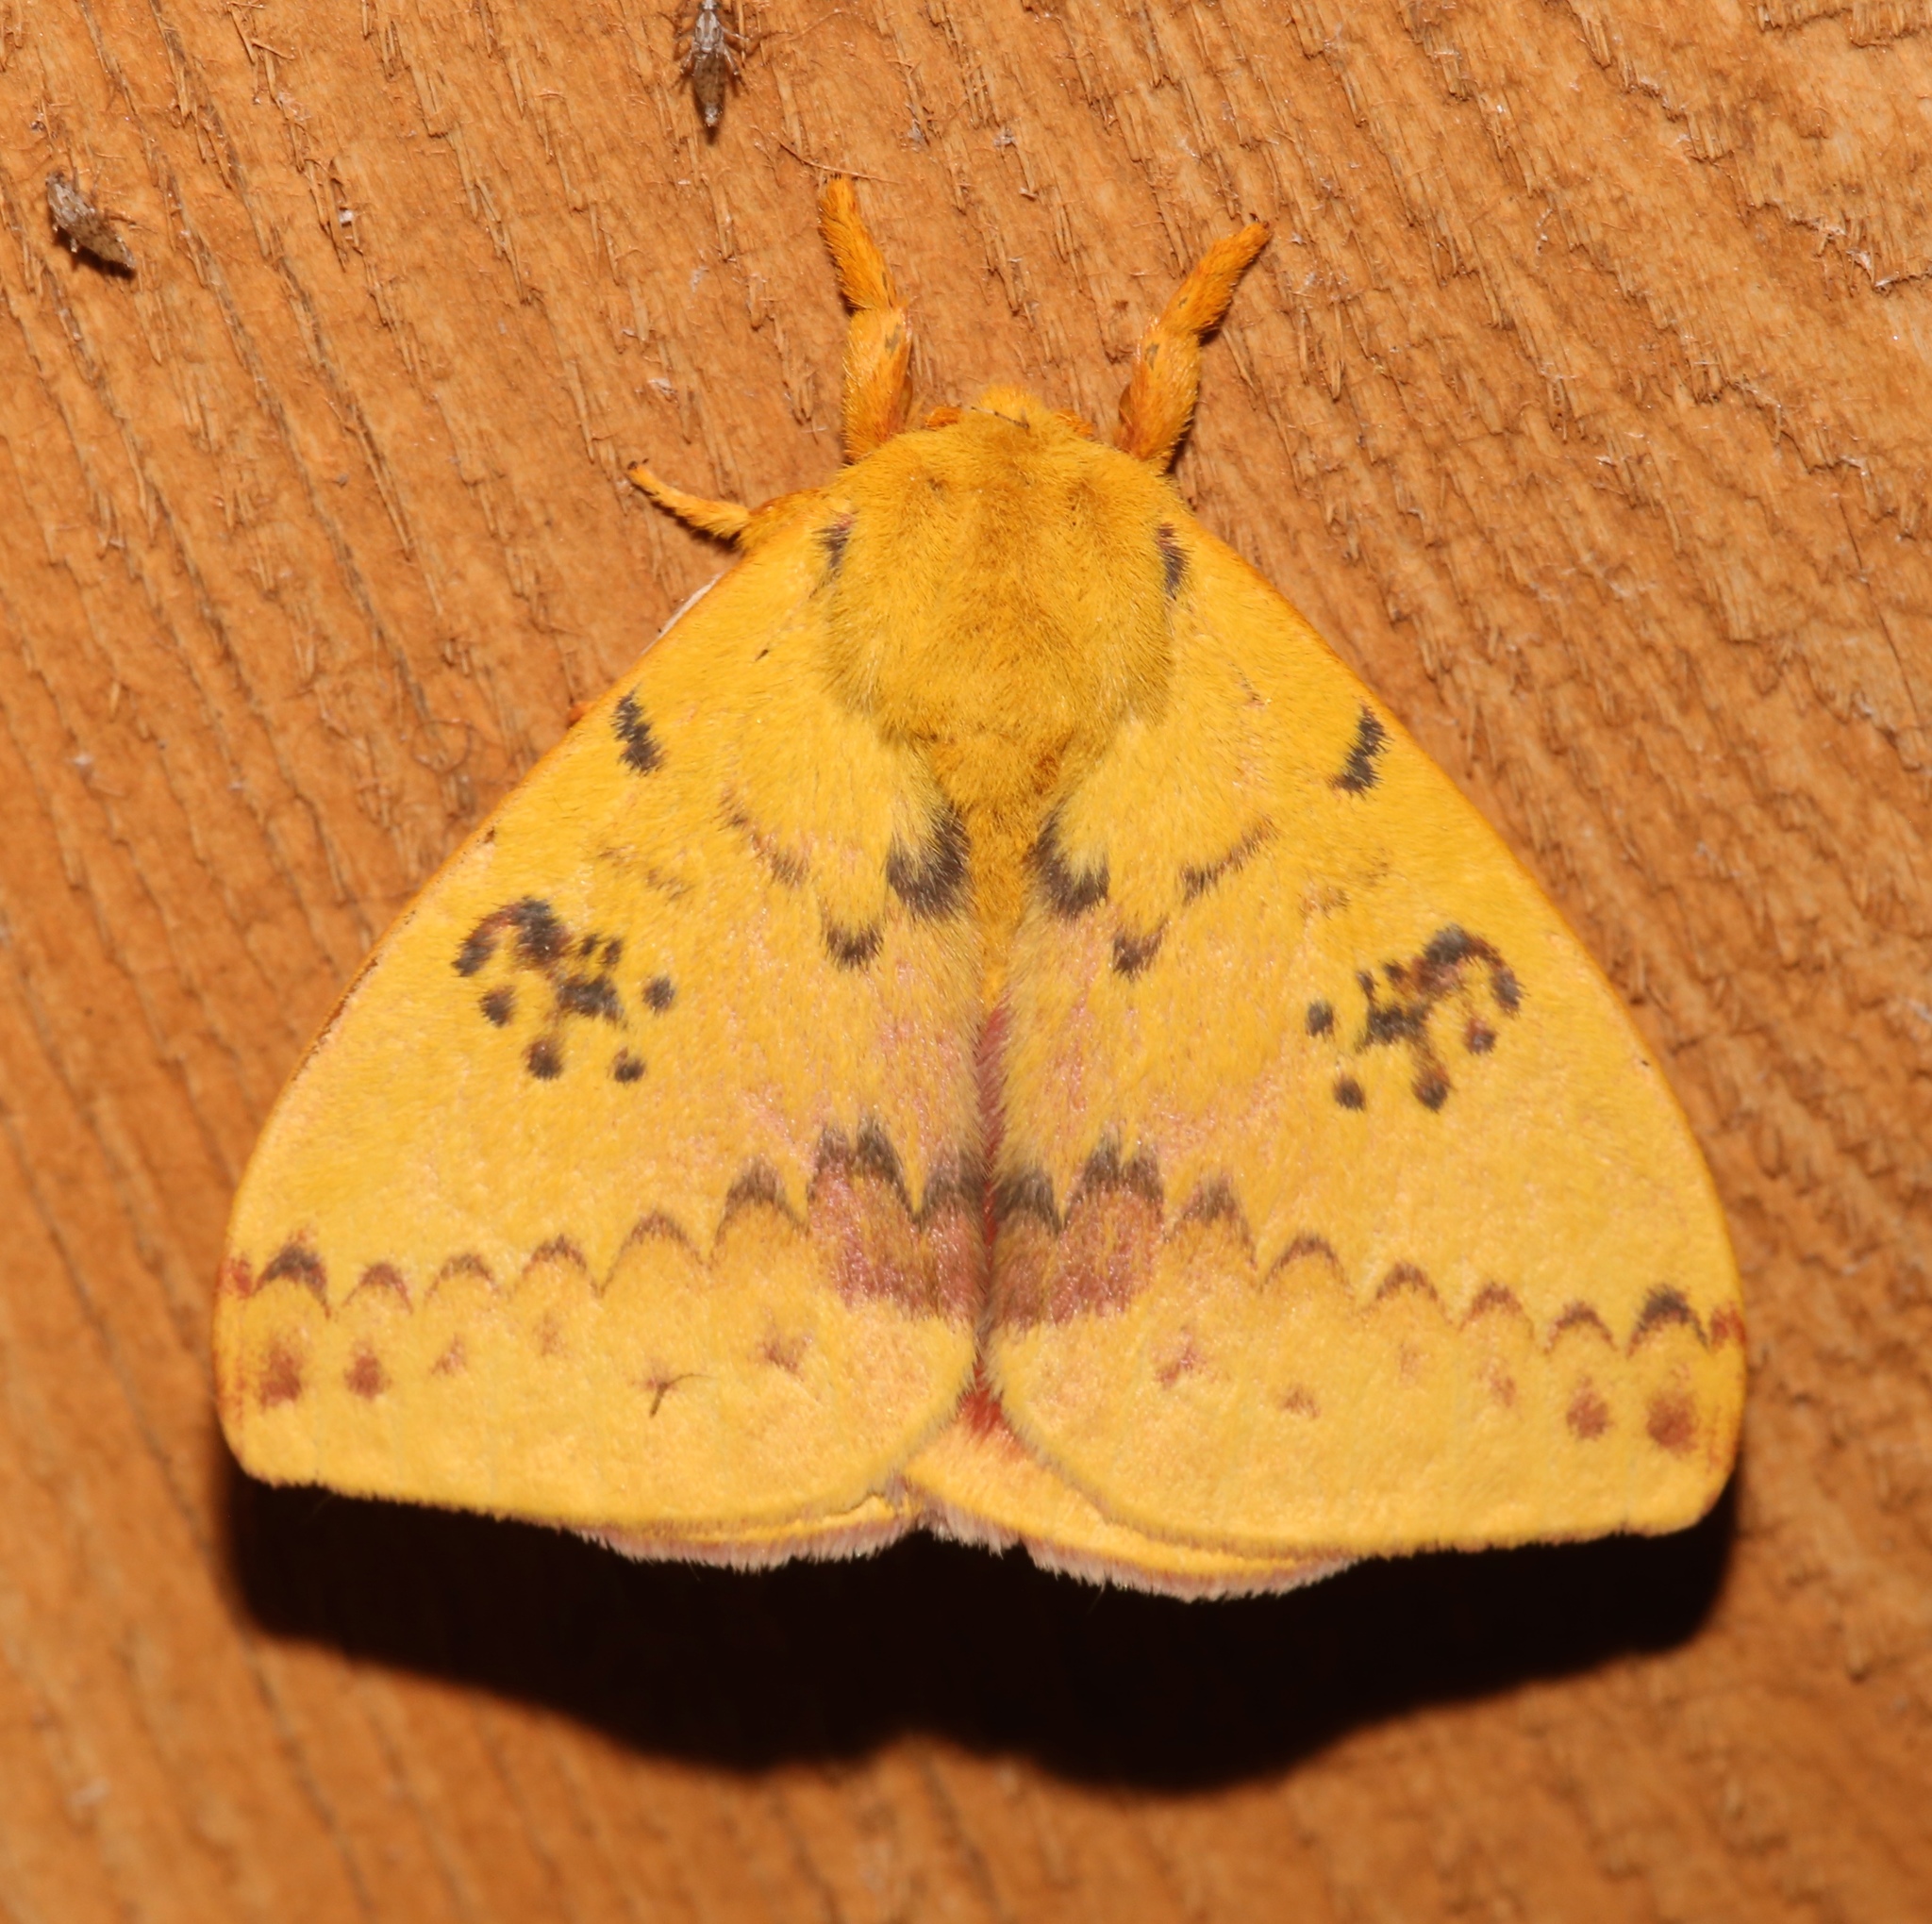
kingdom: Animalia
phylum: Arthropoda
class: Insecta
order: Lepidoptera
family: Saturniidae
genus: Automeris
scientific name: Automeris io
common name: Io moth
